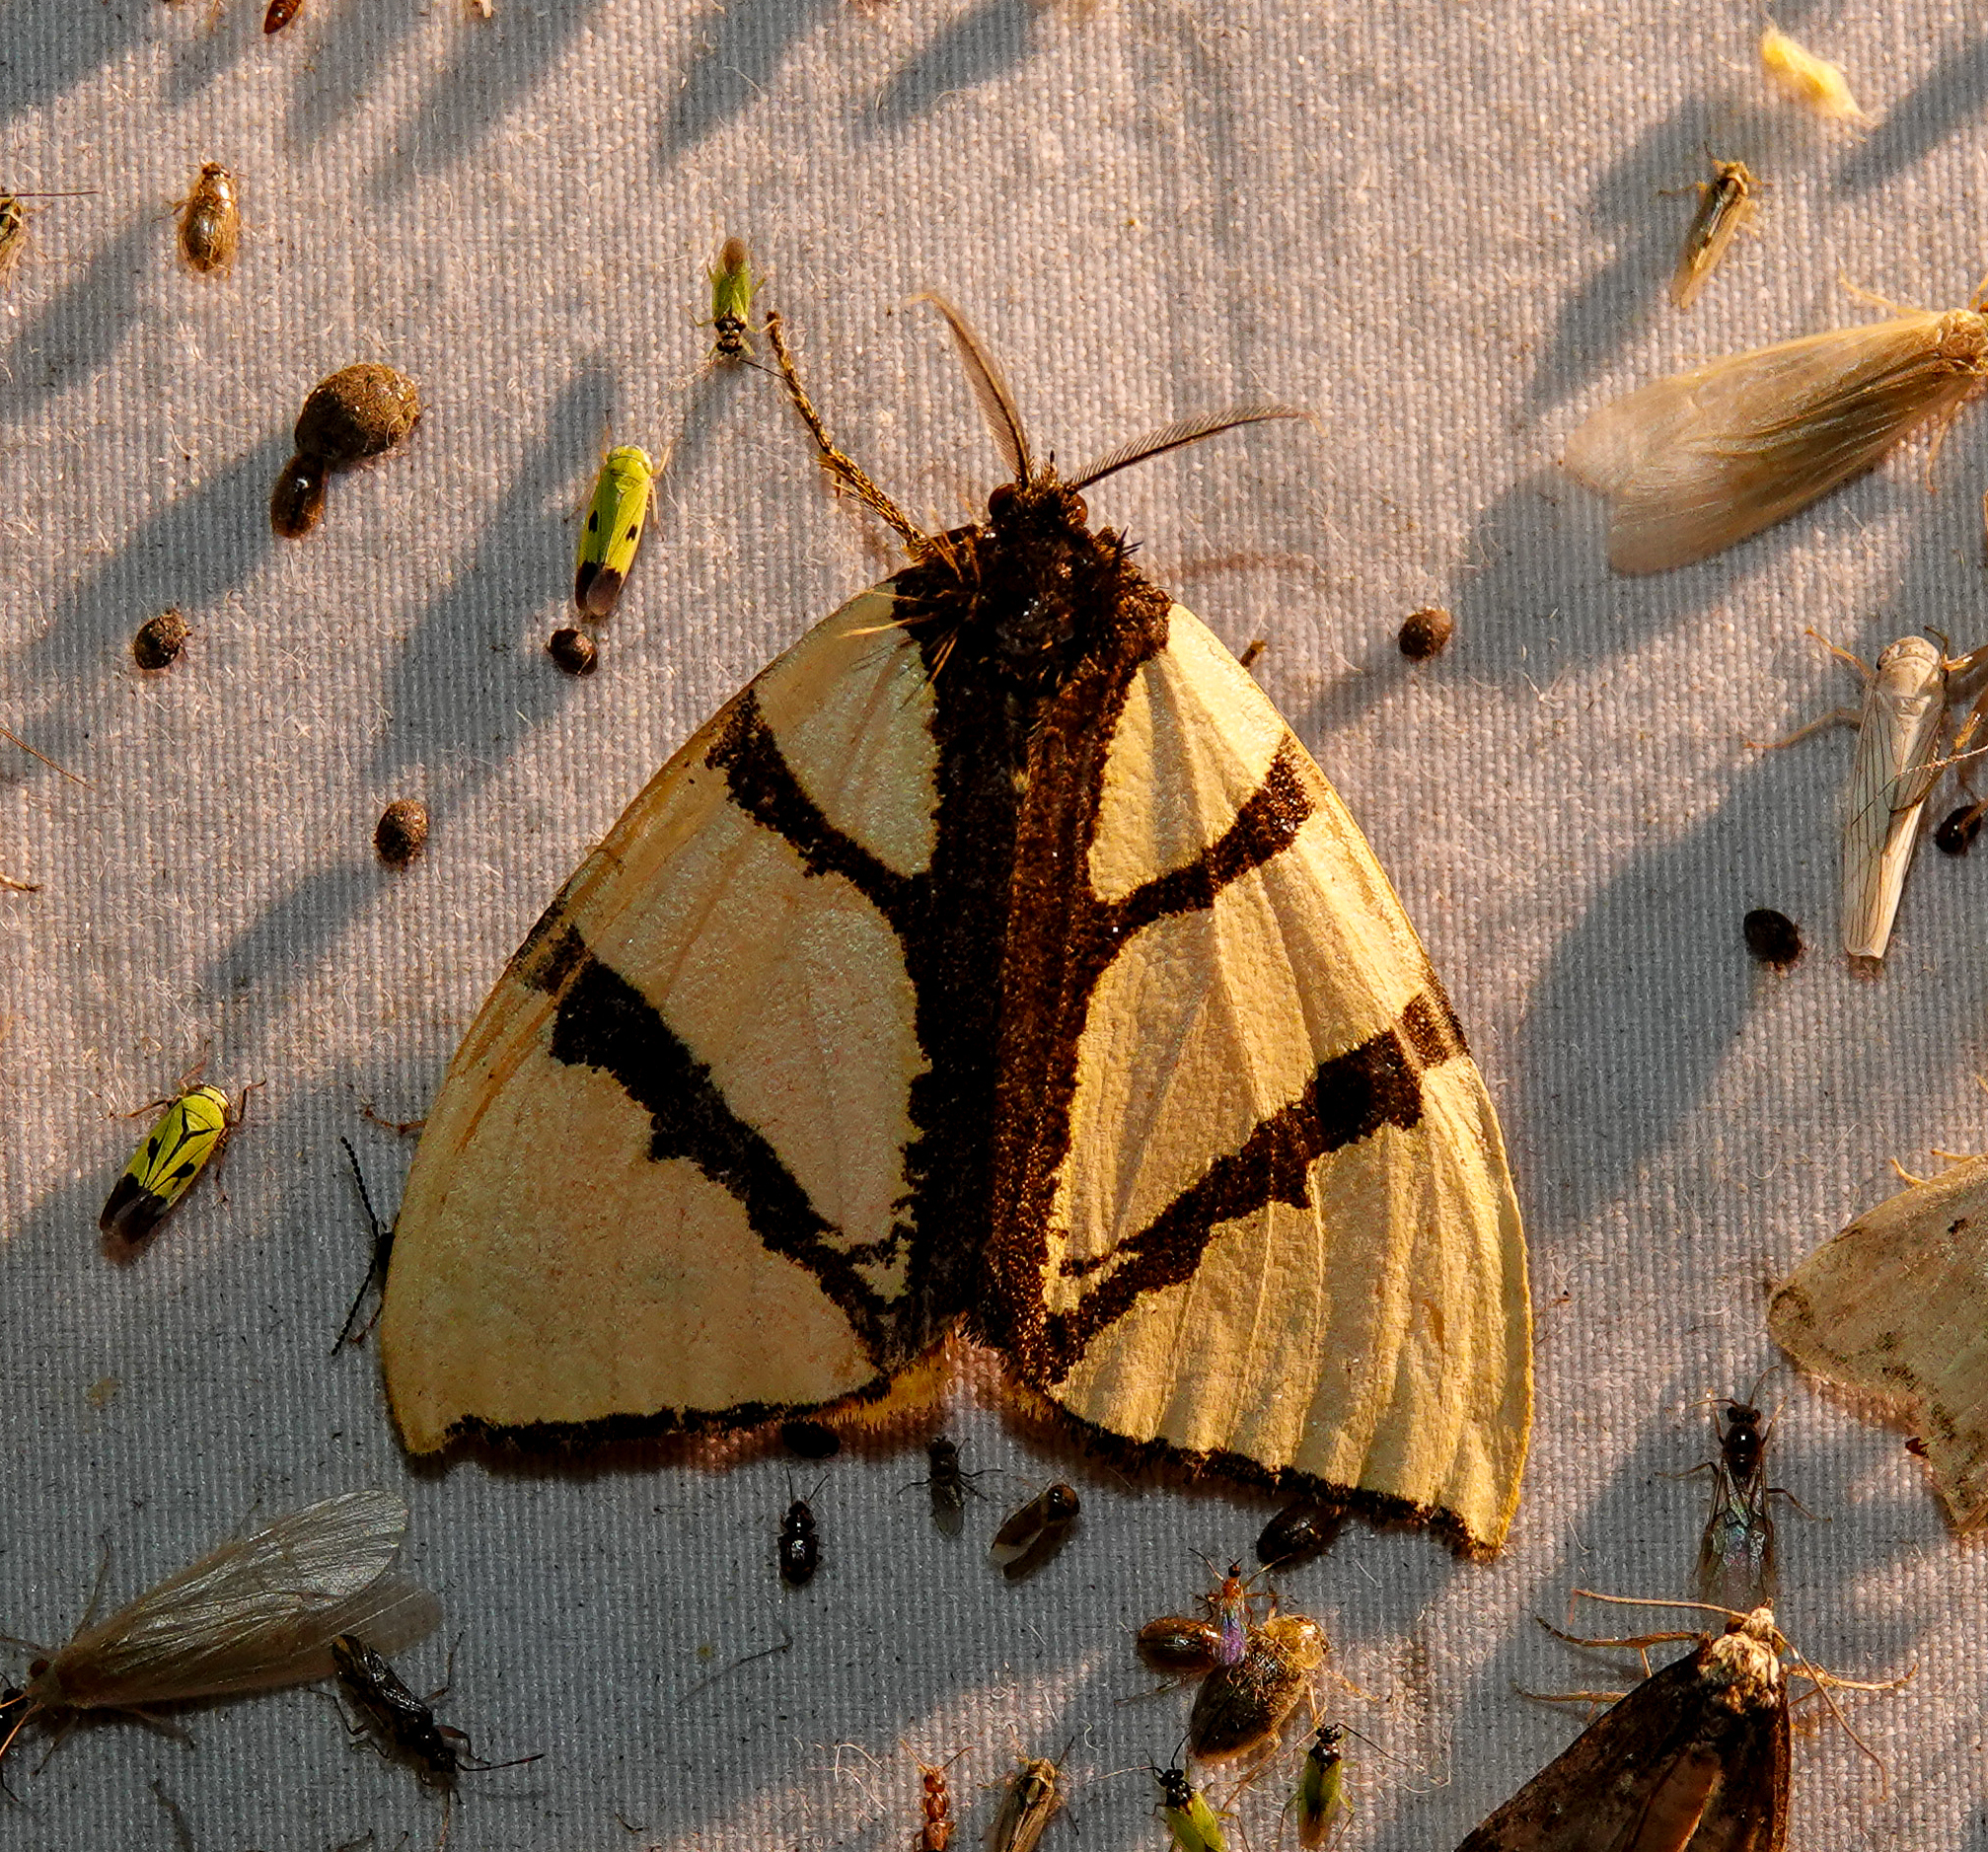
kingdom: Animalia
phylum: Arthropoda
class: Insecta
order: Lepidoptera
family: Erebidae
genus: Numenes
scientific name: Numenes siletti
